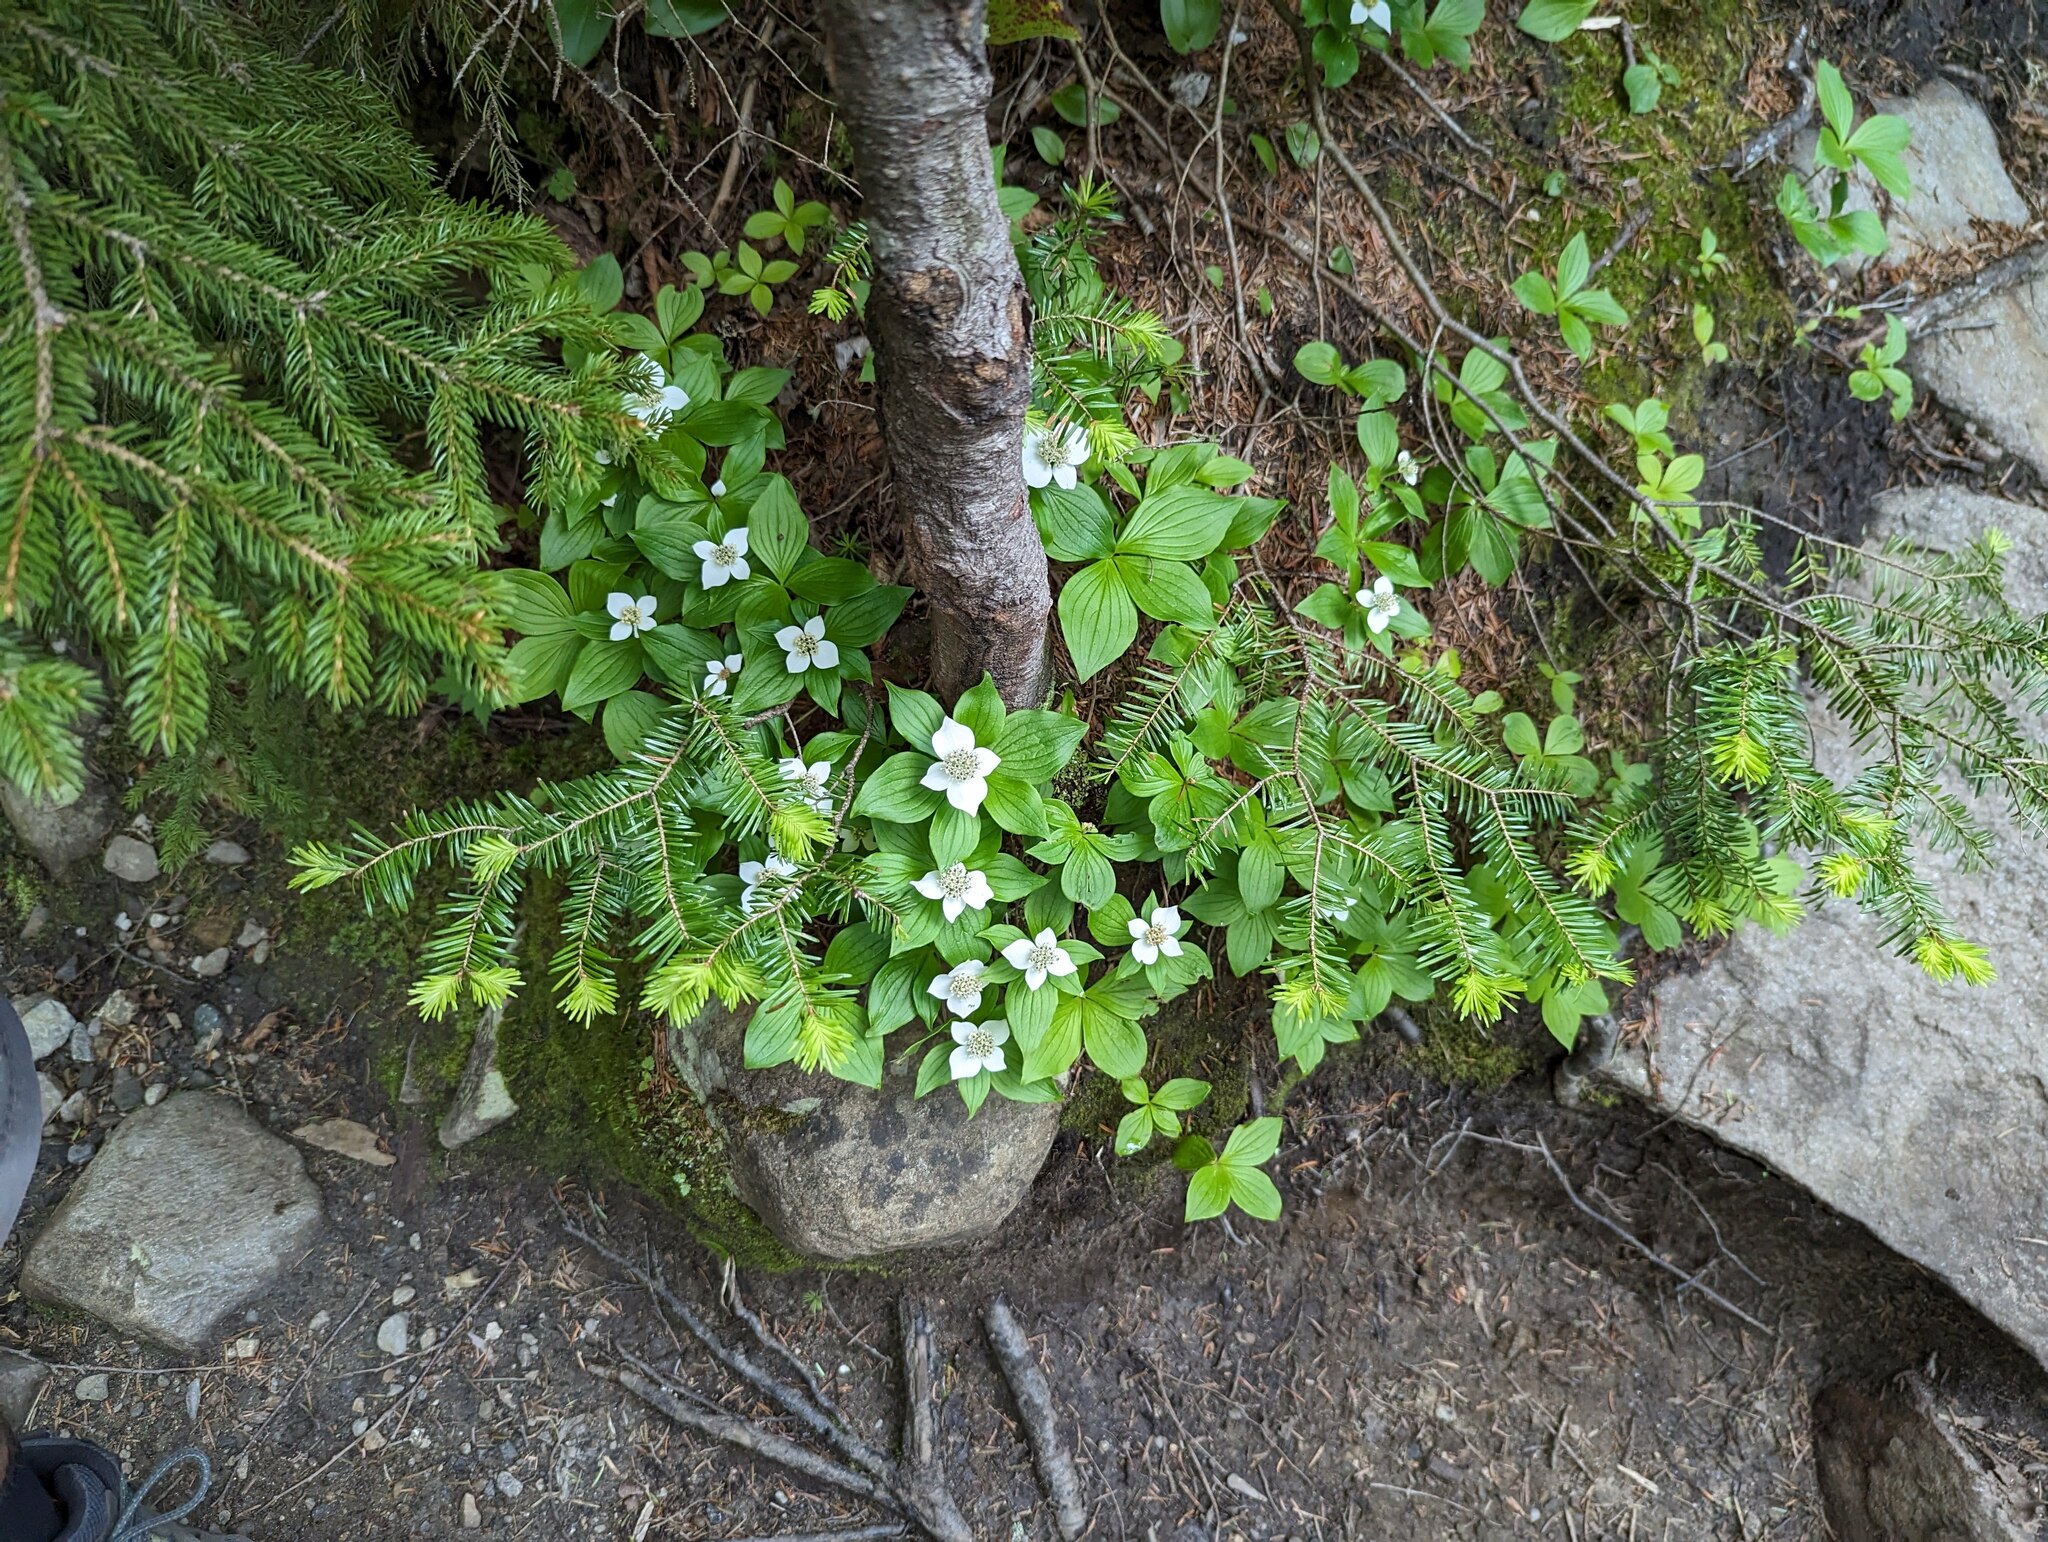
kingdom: Plantae
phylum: Tracheophyta
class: Magnoliopsida
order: Cornales
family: Cornaceae
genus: Cornus
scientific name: Cornus canadensis
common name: Creeping dogwood
